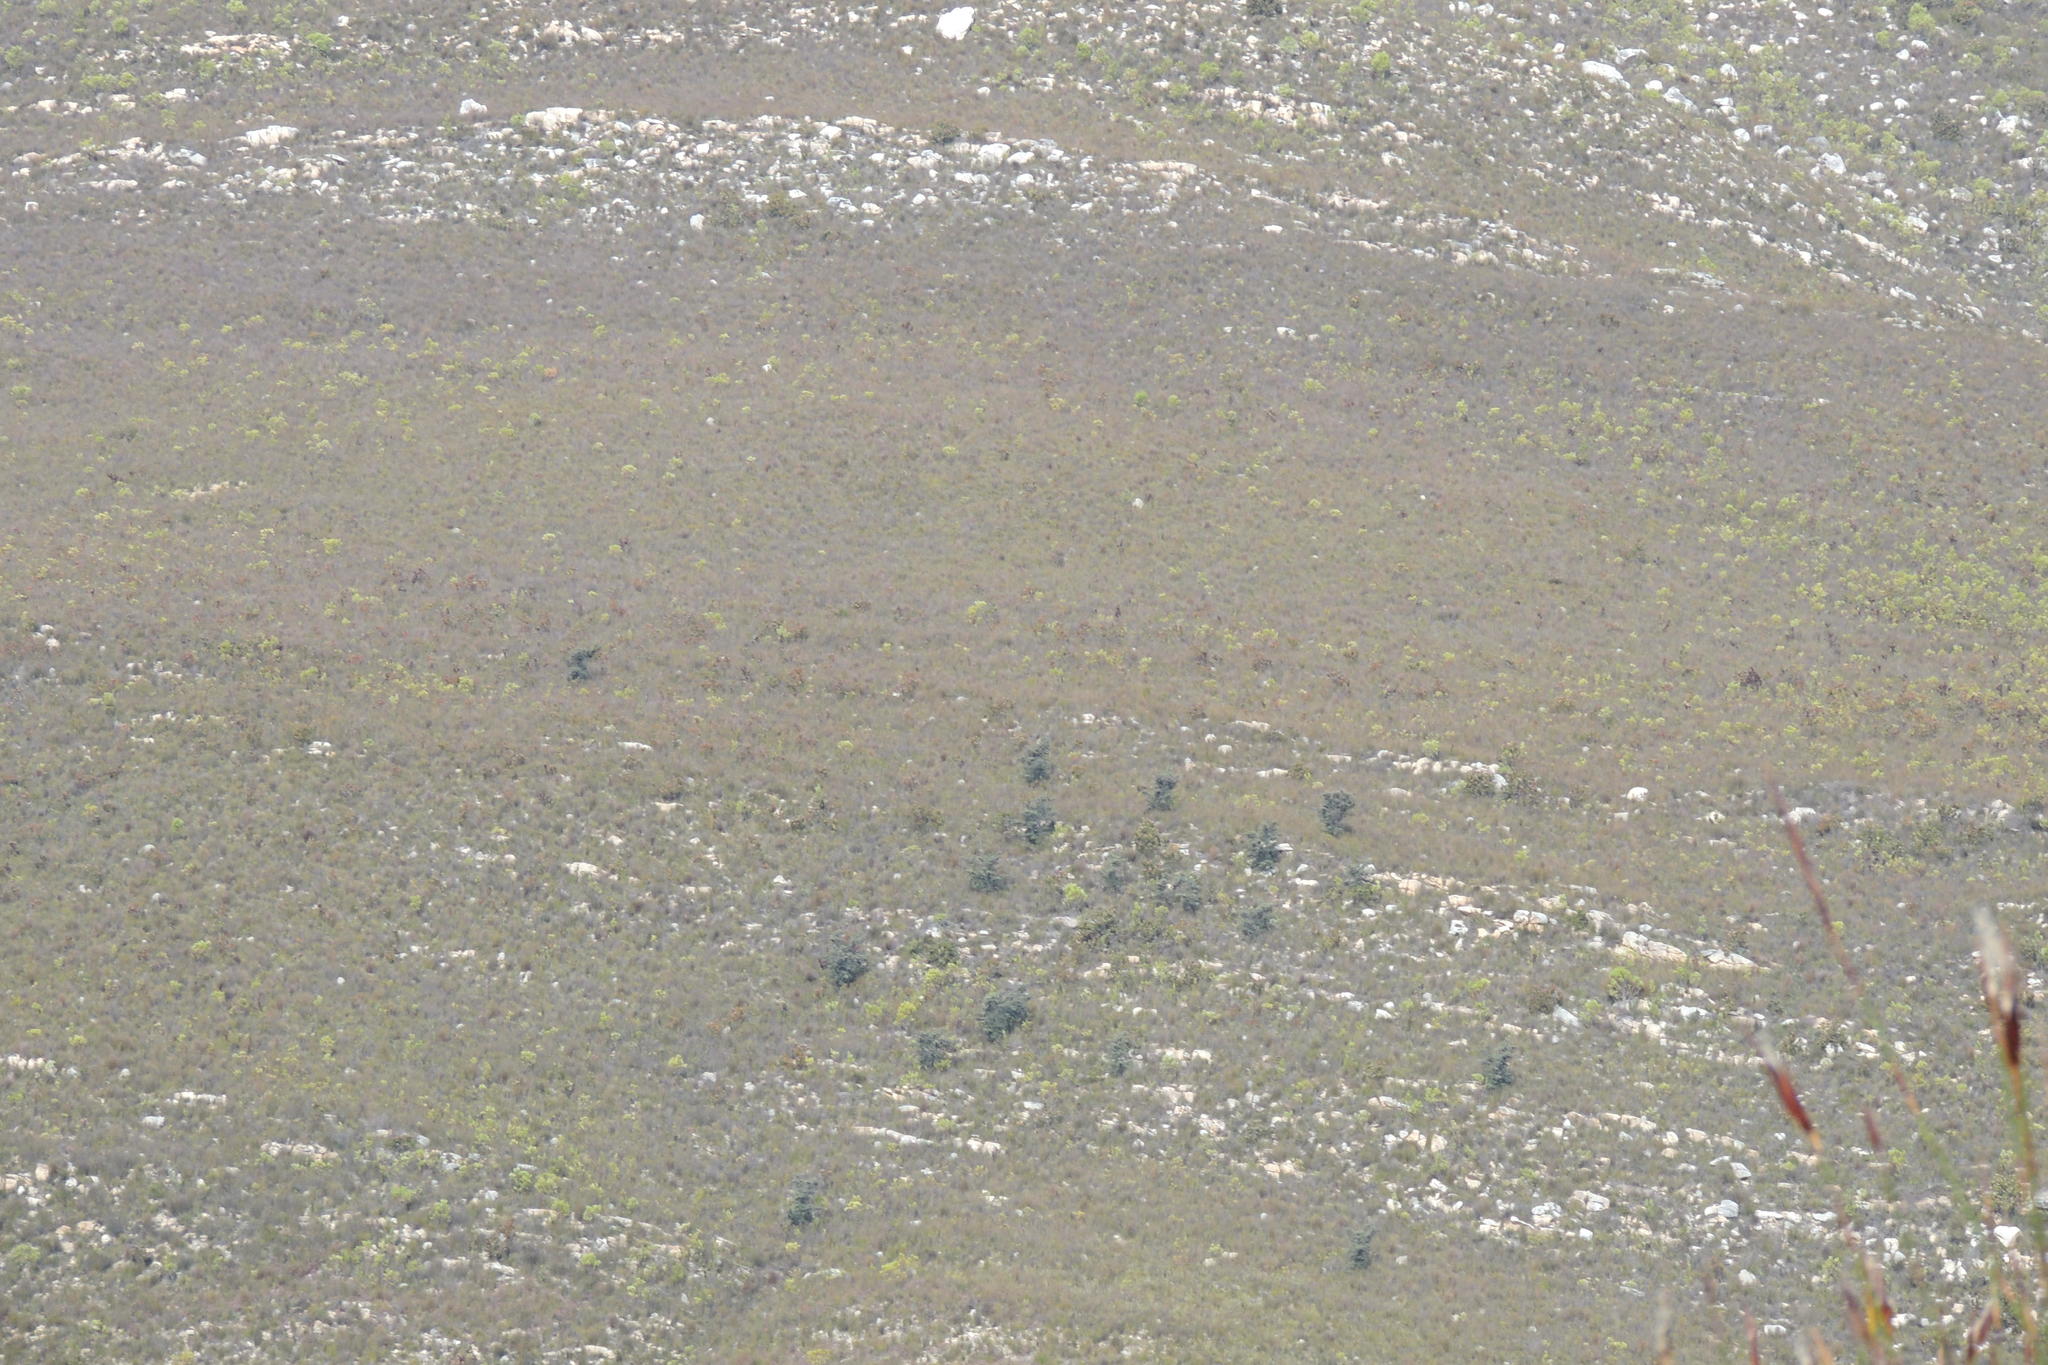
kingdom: Plantae
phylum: Tracheophyta
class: Magnoliopsida
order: Proteales
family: Proteaceae
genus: Hakea
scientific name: Hakea sericea
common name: Needle bush
